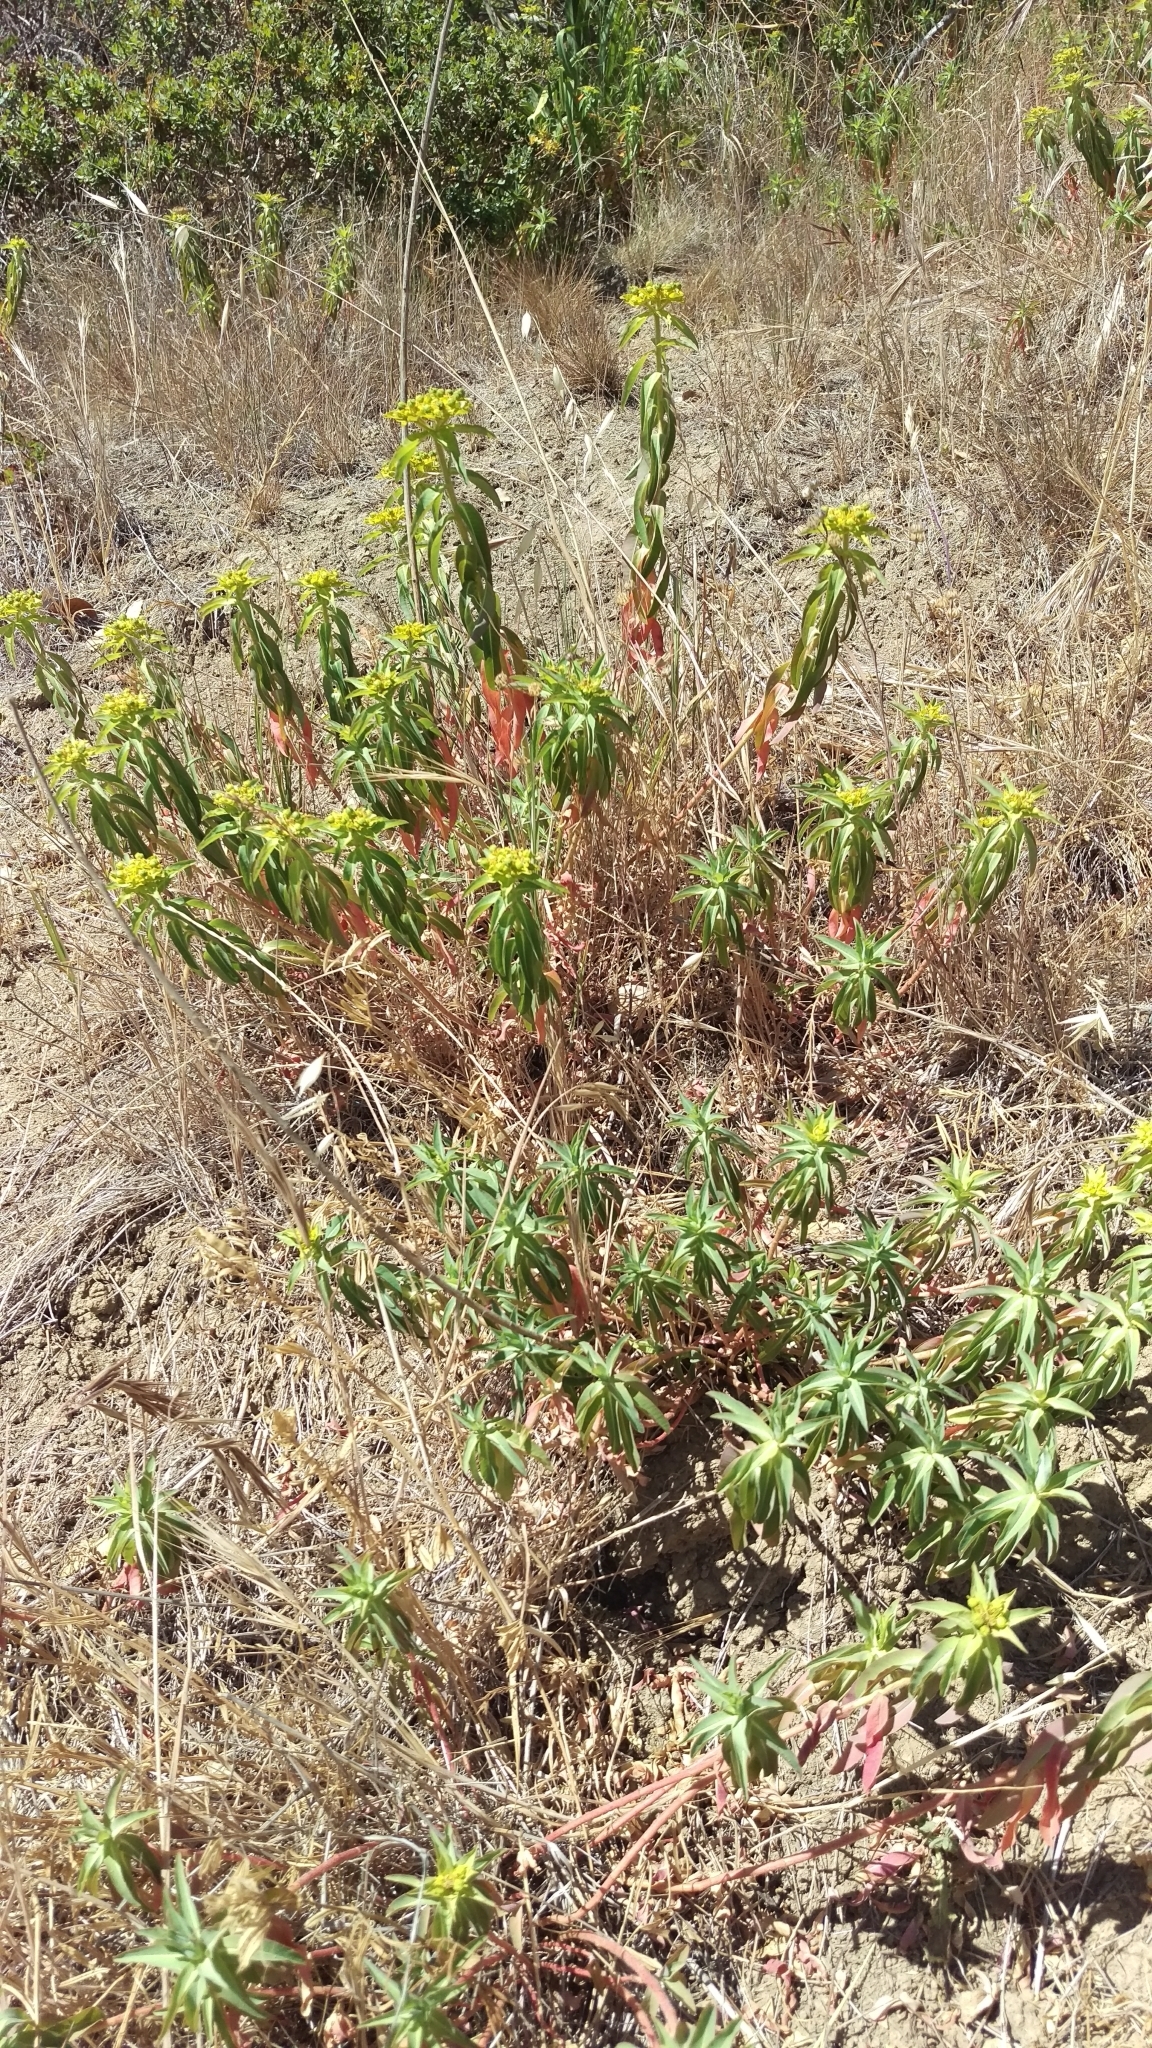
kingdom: Plantae
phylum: Tracheophyta
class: Magnoliopsida
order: Malpighiales
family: Euphorbiaceae
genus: Euphorbia
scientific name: Euphorbia oblongata
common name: Balkan spurge
